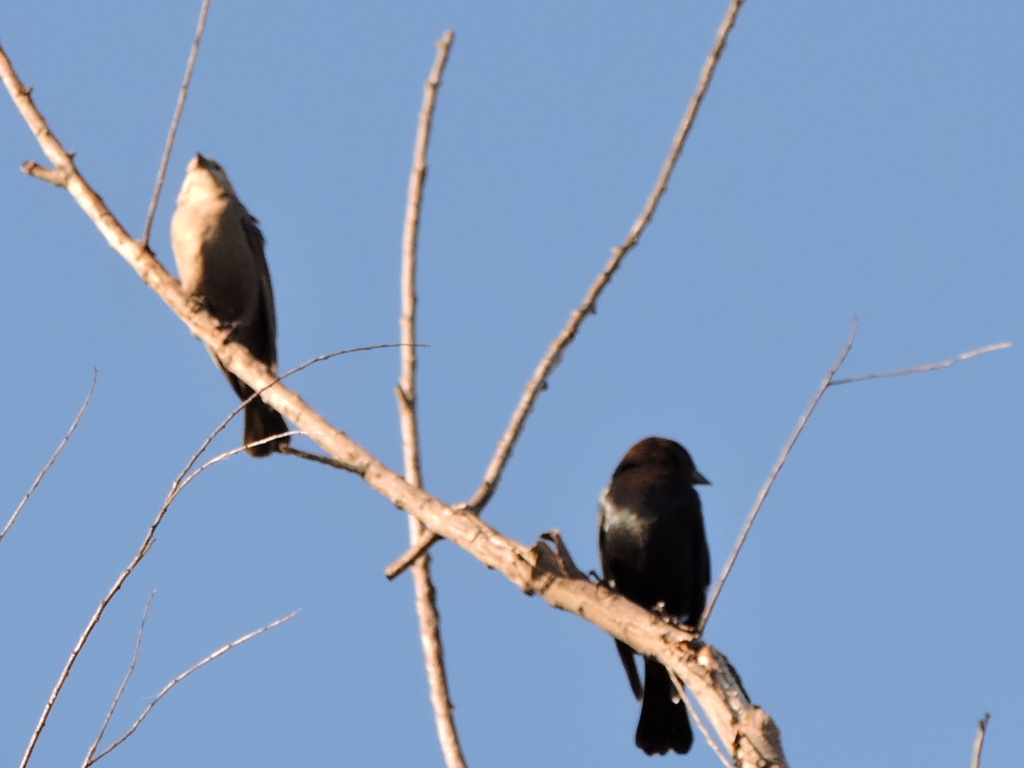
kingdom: Animalia
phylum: Chordata
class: Aves
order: Passeriformes
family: Icteridae
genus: Molothrus
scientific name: Molothrus ater
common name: Brown-headed cowbird
